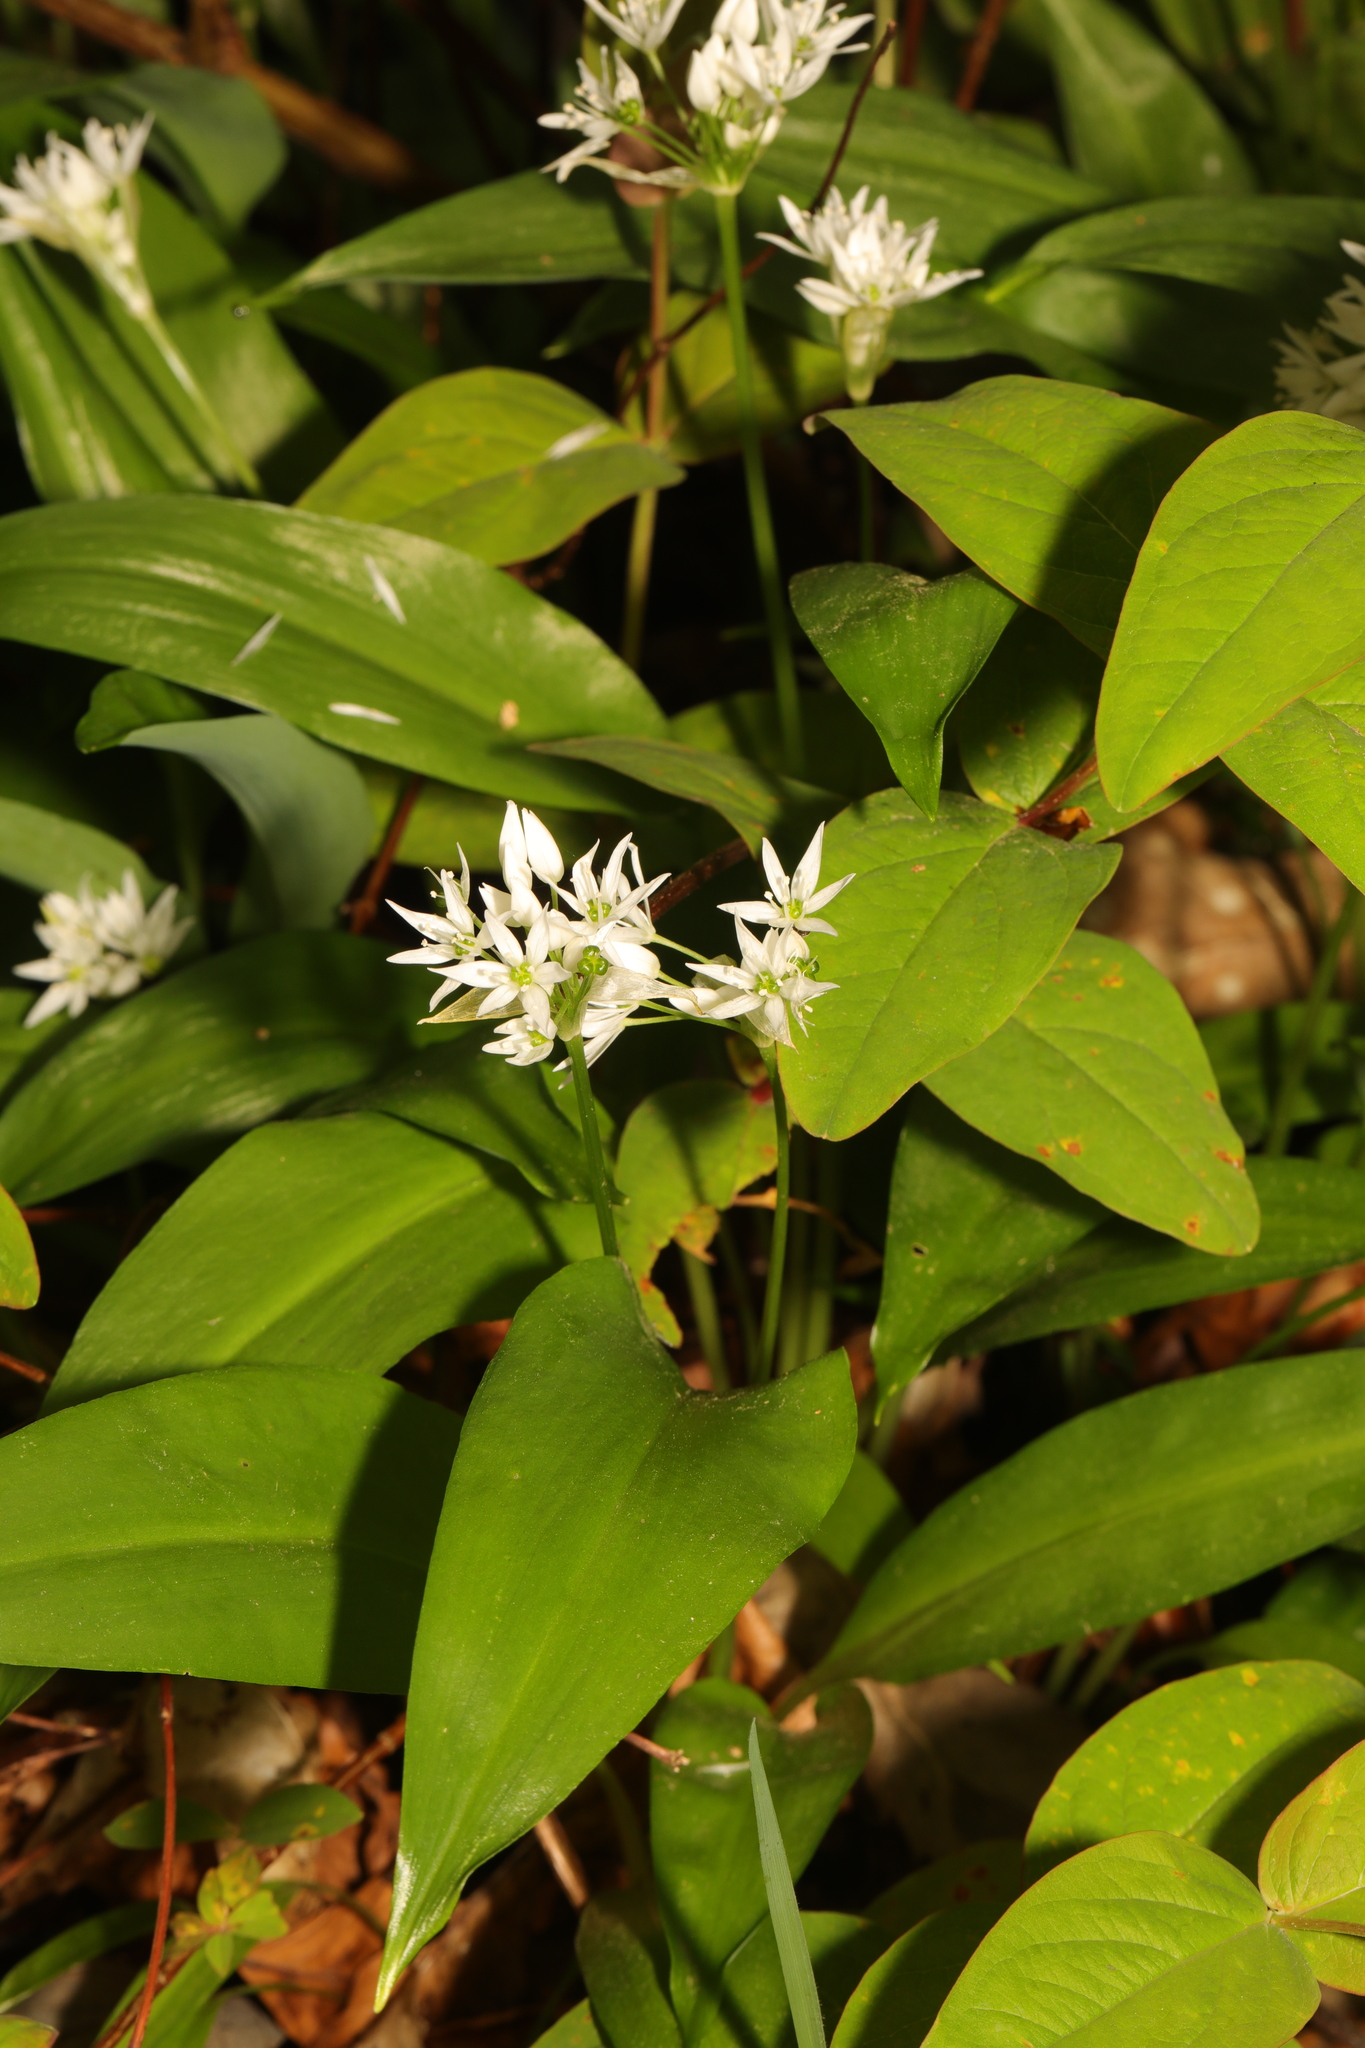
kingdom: Plantae
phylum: Tracheophyta
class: Liliopsida
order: Asparagales
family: Amaryllidaceae
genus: Allium
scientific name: Allium ursinum
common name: Ramsons
